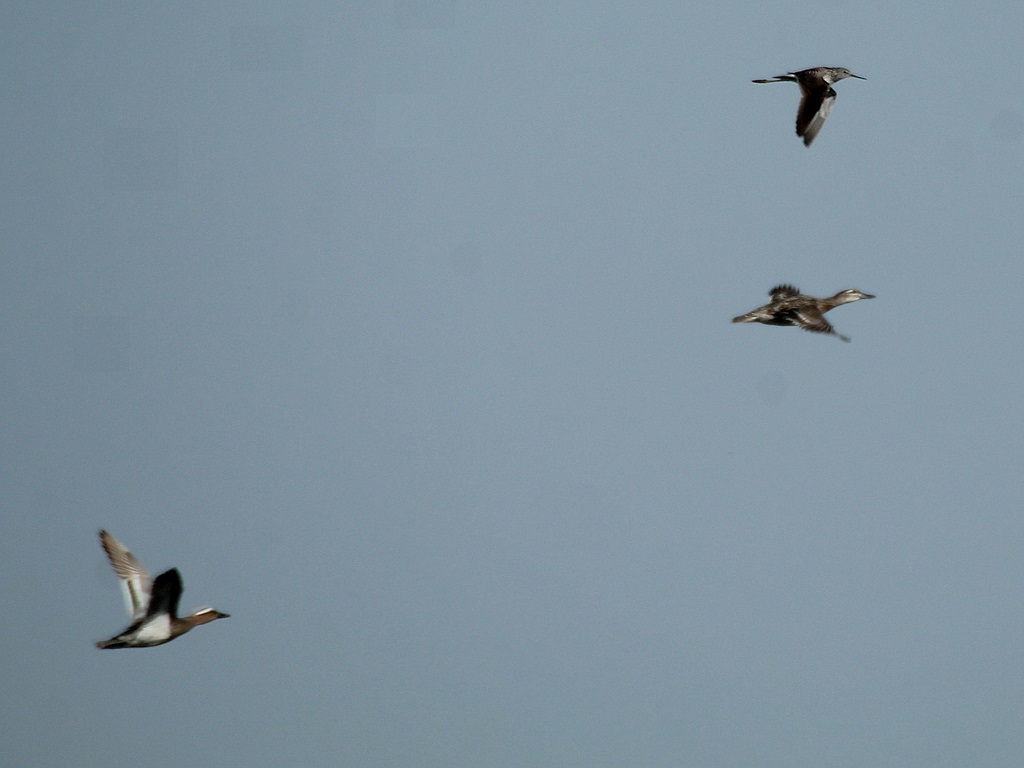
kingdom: Animalia
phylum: Chordata
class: Aves
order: Anseriformes
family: Anatidae
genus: Spatula
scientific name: Spatula querquedula
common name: Garganey
